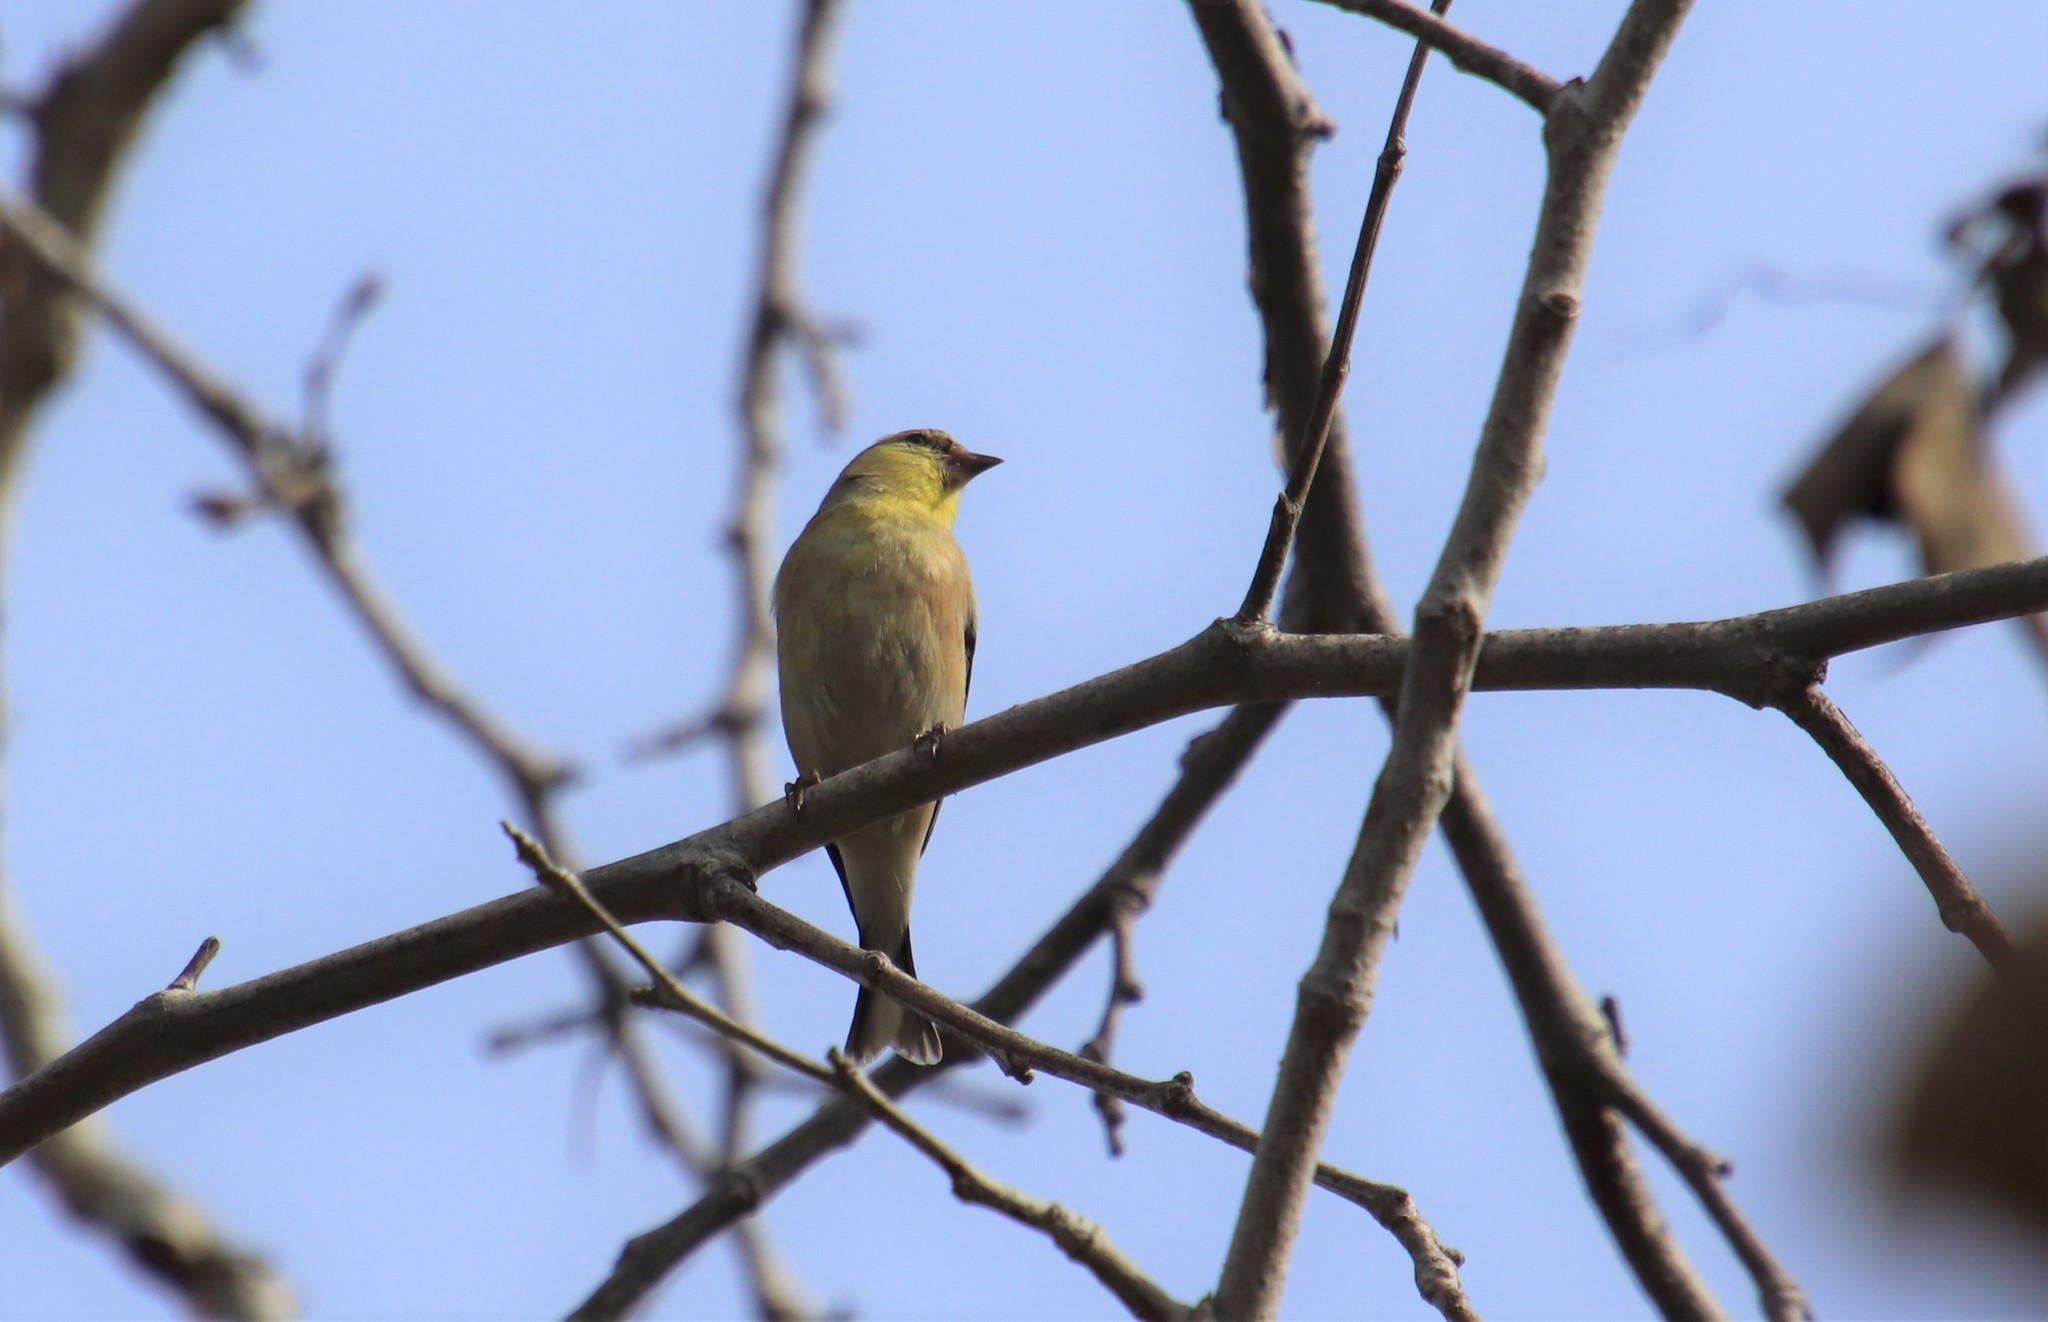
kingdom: Animalia
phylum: Chordata
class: Aves
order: Passeriformes
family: Fringillidae
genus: Spinus
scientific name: Spinus tristis
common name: American goldfinch
